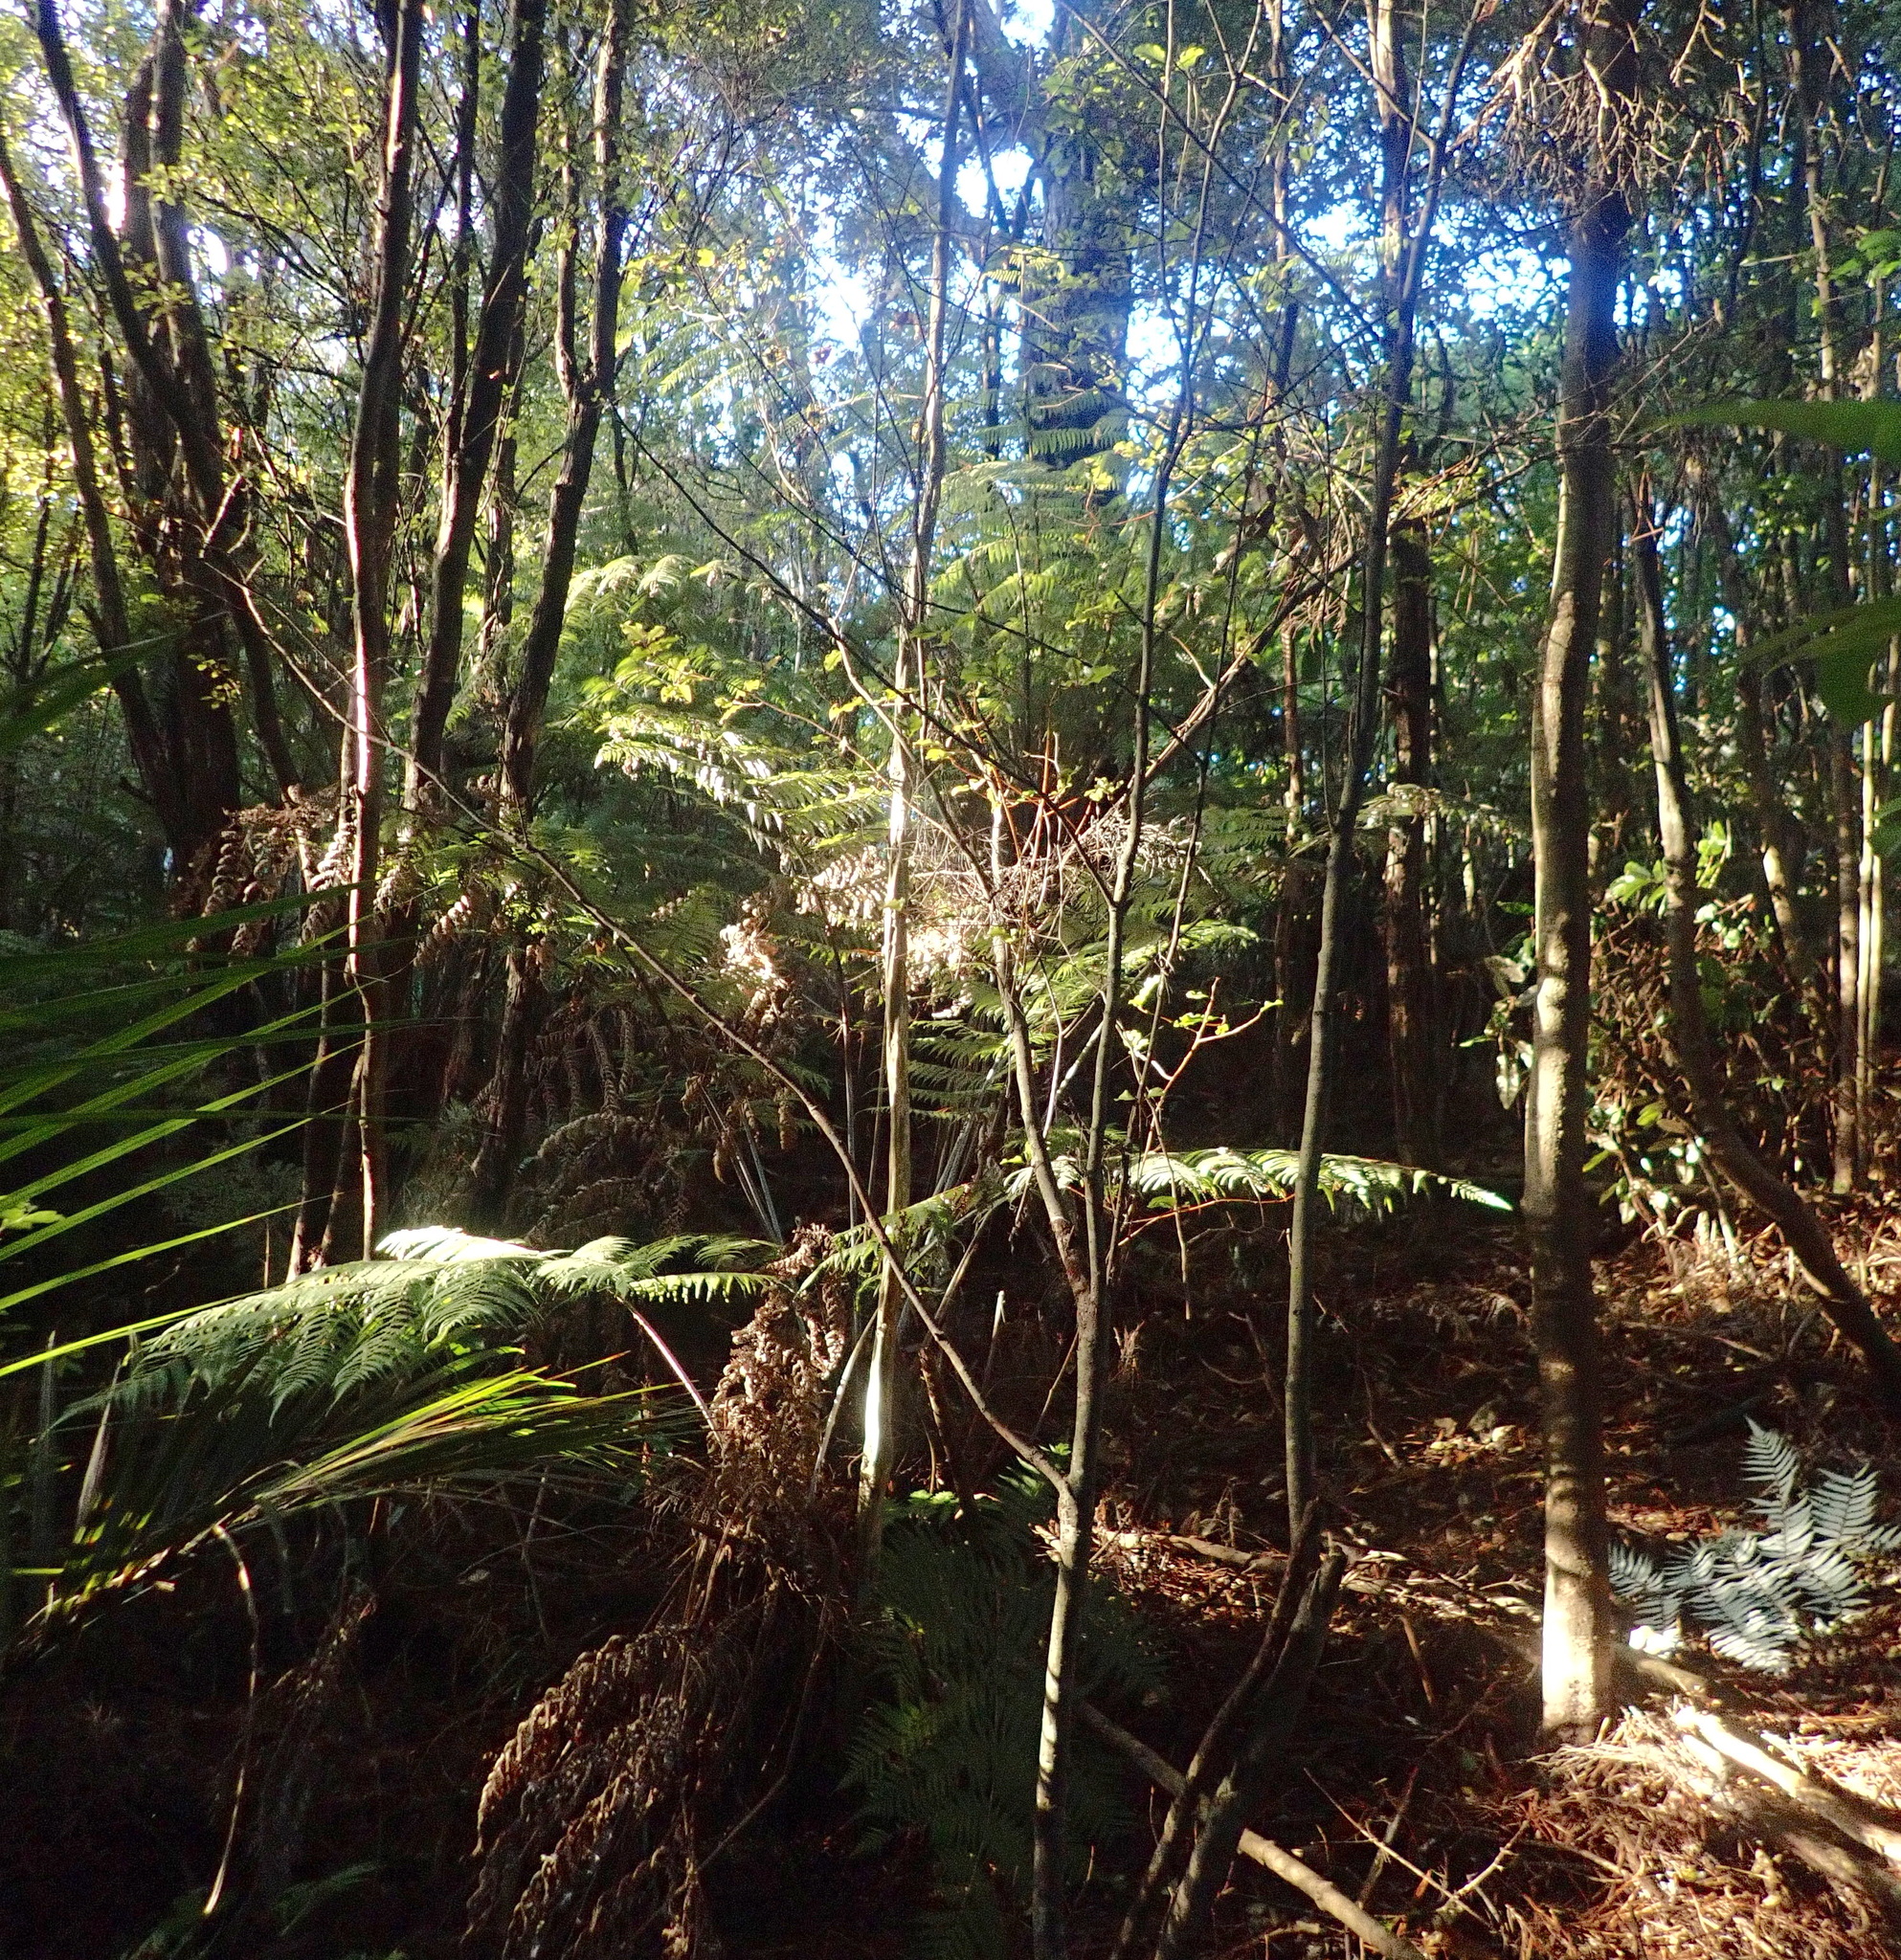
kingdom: Plantae
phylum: Tracheophyta
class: Magnoliopsida
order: Ericales
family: Primulaceae
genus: Myrsine
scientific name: Myrsine australis
